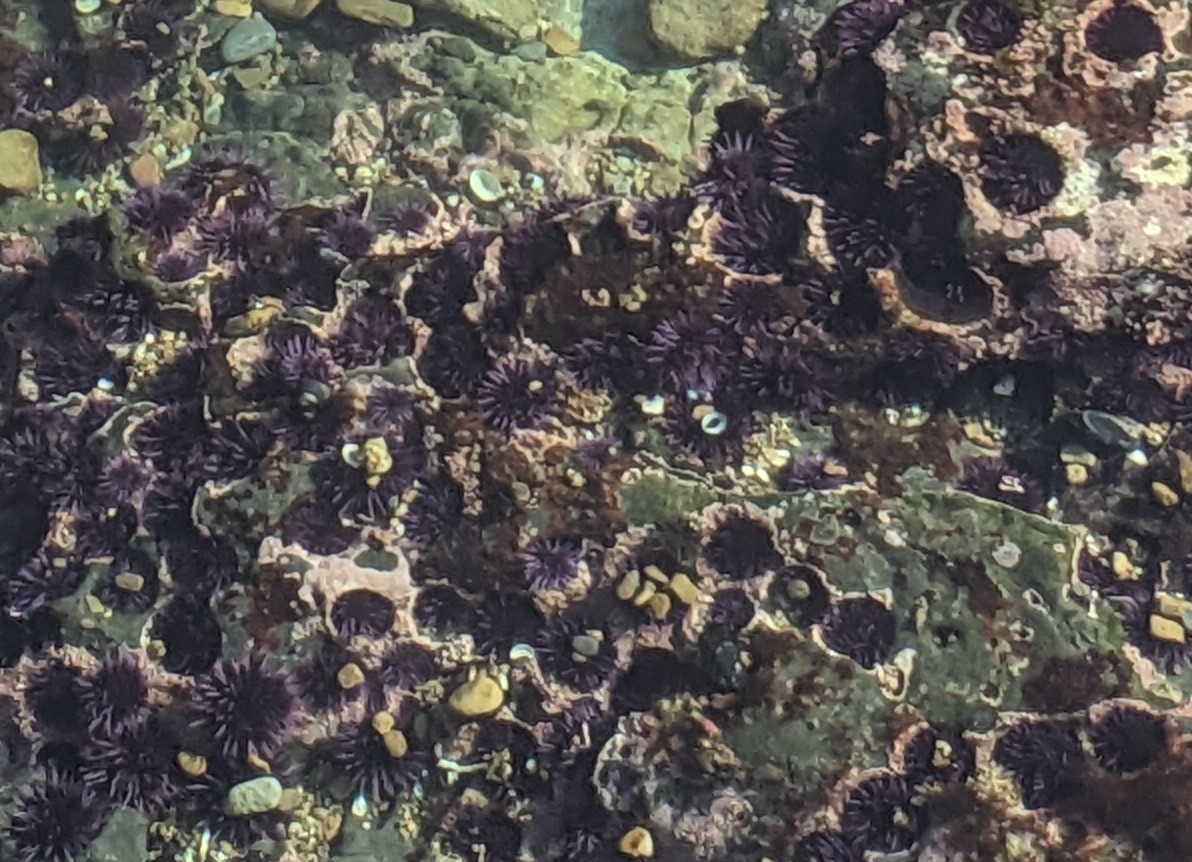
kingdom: Animalia
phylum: Echinodermata
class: Echinoidea
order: Camarodonta
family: Strongylocentrotidae
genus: Strongylocentrotus
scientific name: Strongylocentrotus purpuratus
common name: Purple sea urchin
